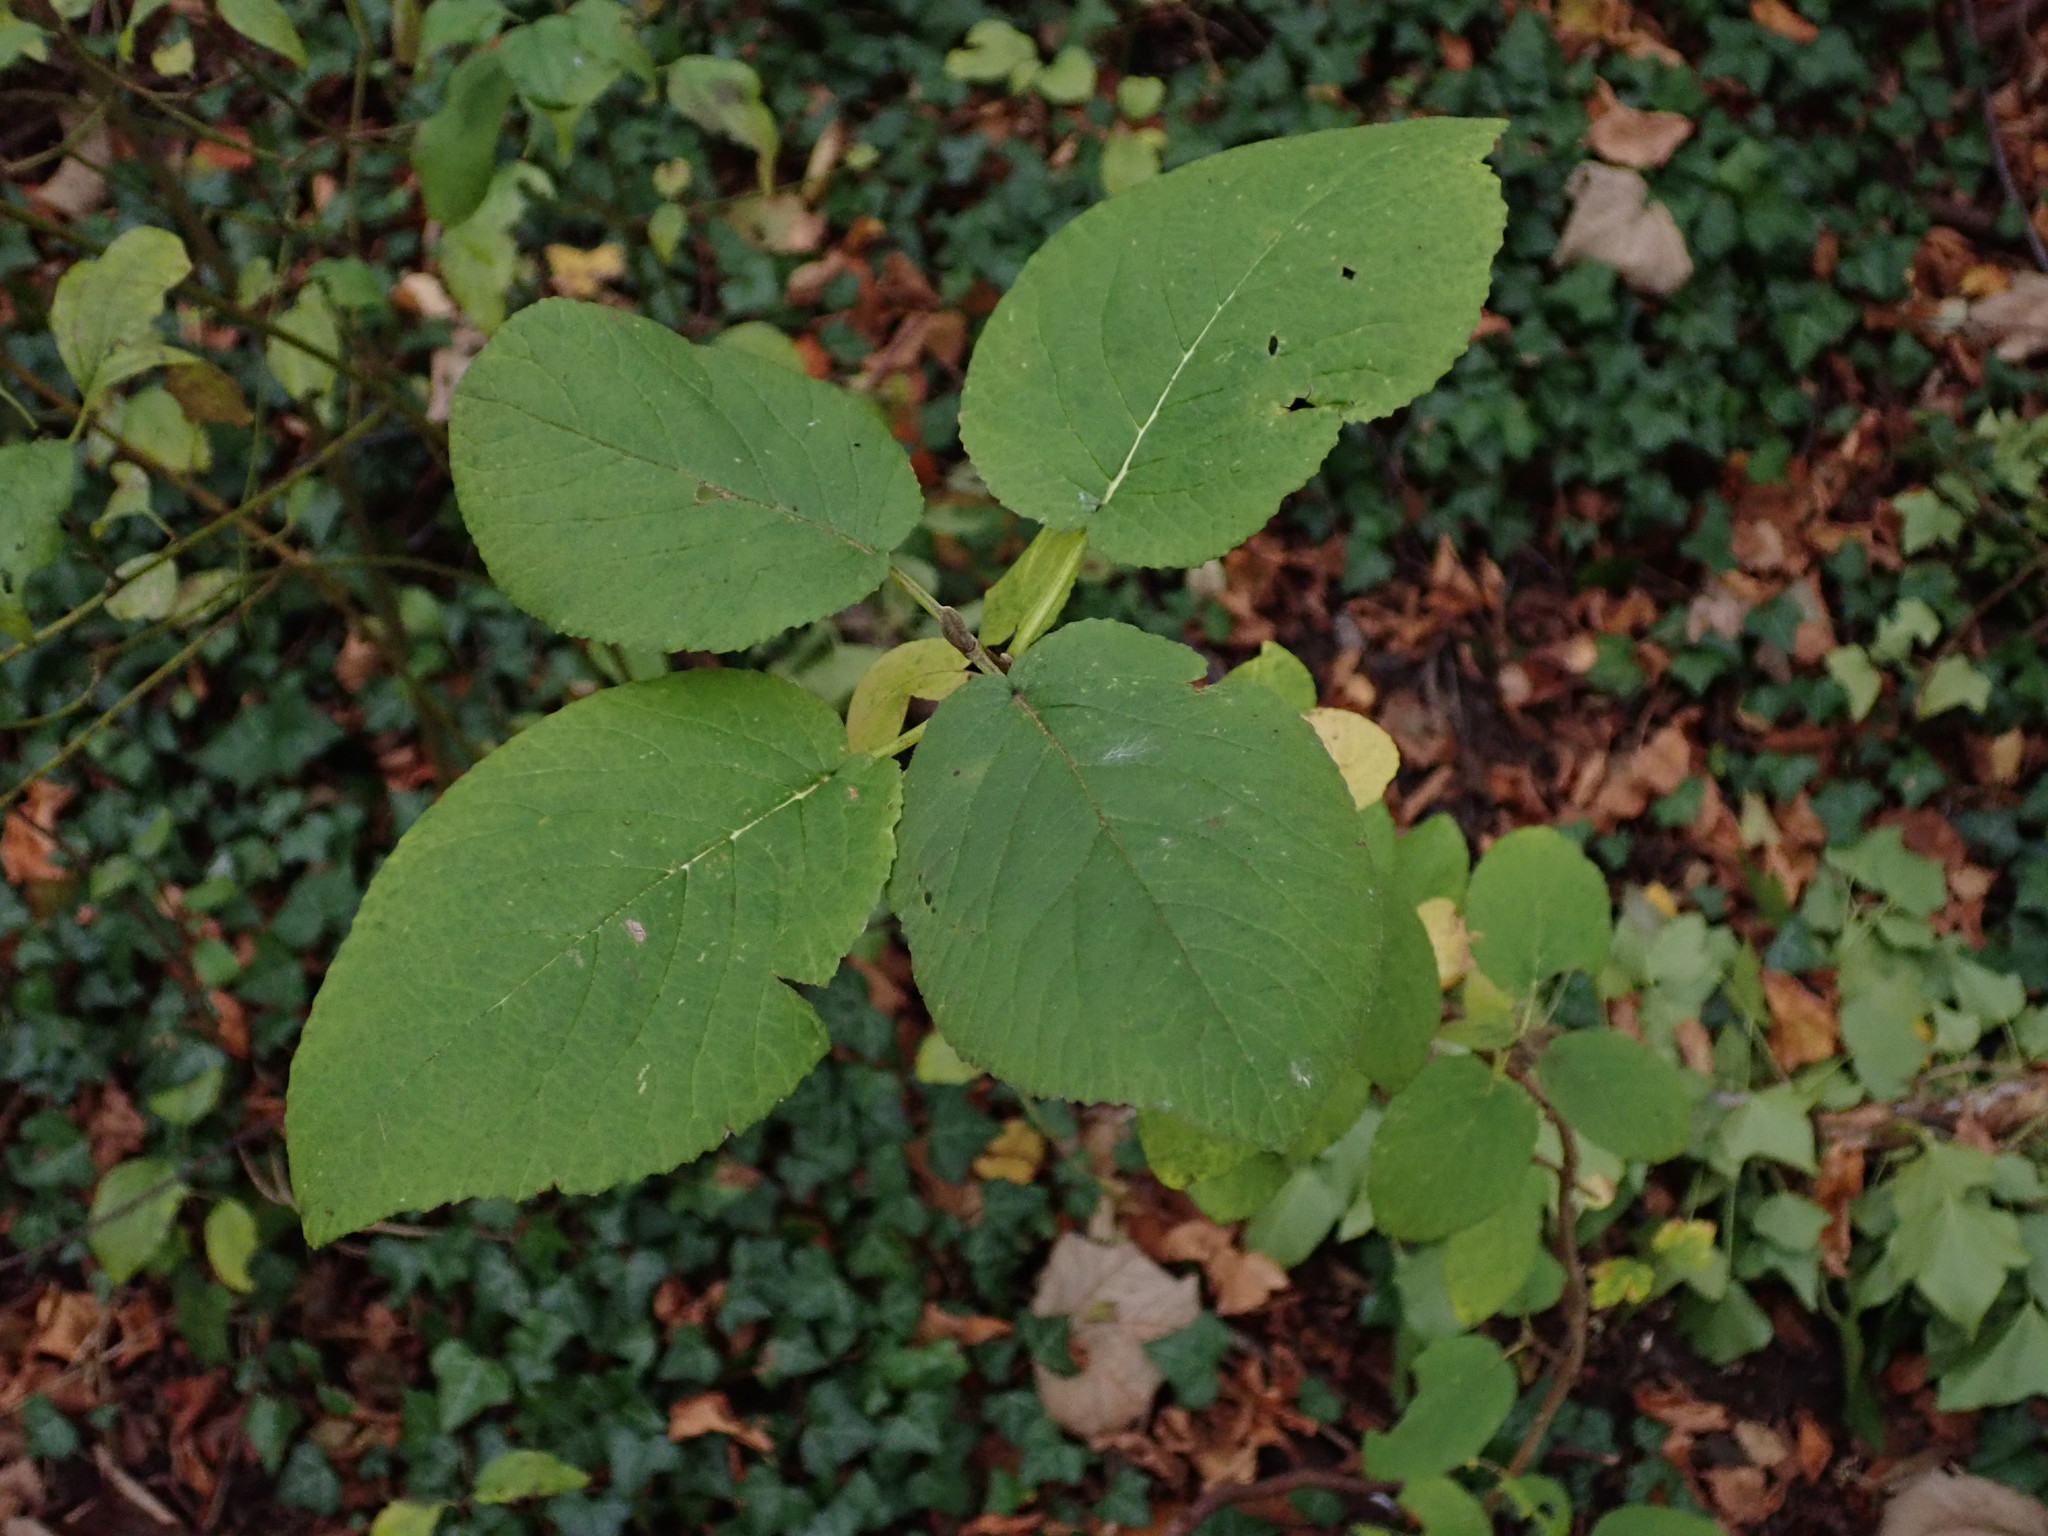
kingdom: Plantae
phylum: Tracheophyta
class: Magnoliopsida
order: Dipsacales
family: Viburnaceae
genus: Viburnum
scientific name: Viburnum lantana
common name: Wayfaring tree
